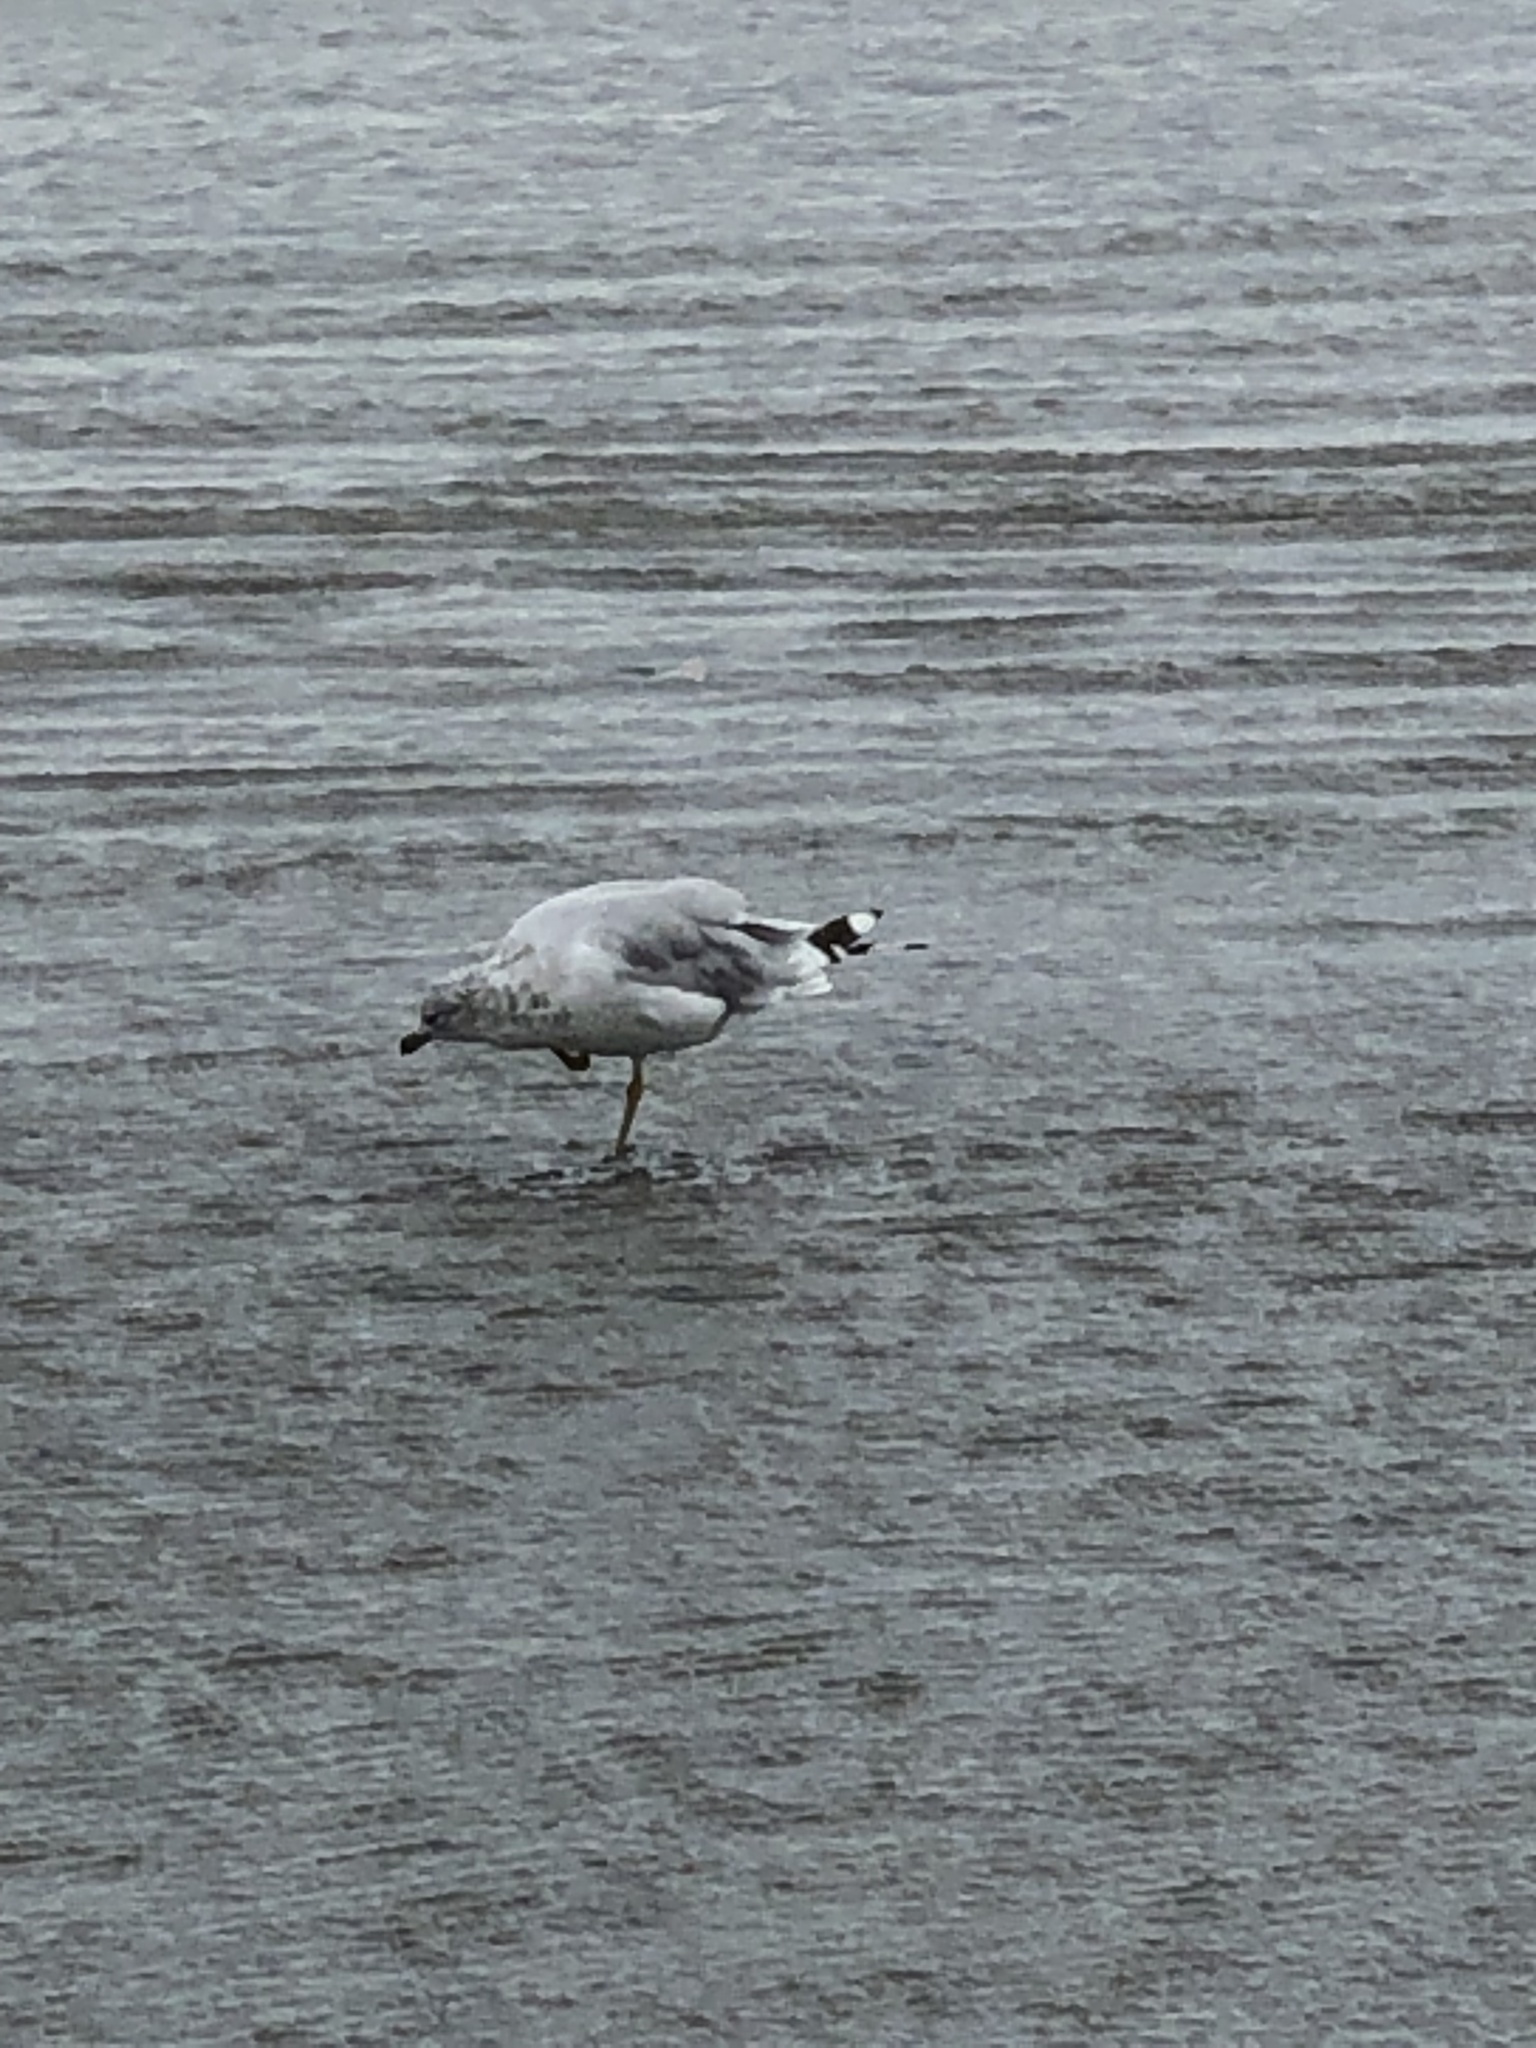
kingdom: Animalia
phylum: Chordata
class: Aves
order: Charadriiformes
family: Laridae
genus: Larus
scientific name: Larus delawarensis
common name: Ring-billed gull
